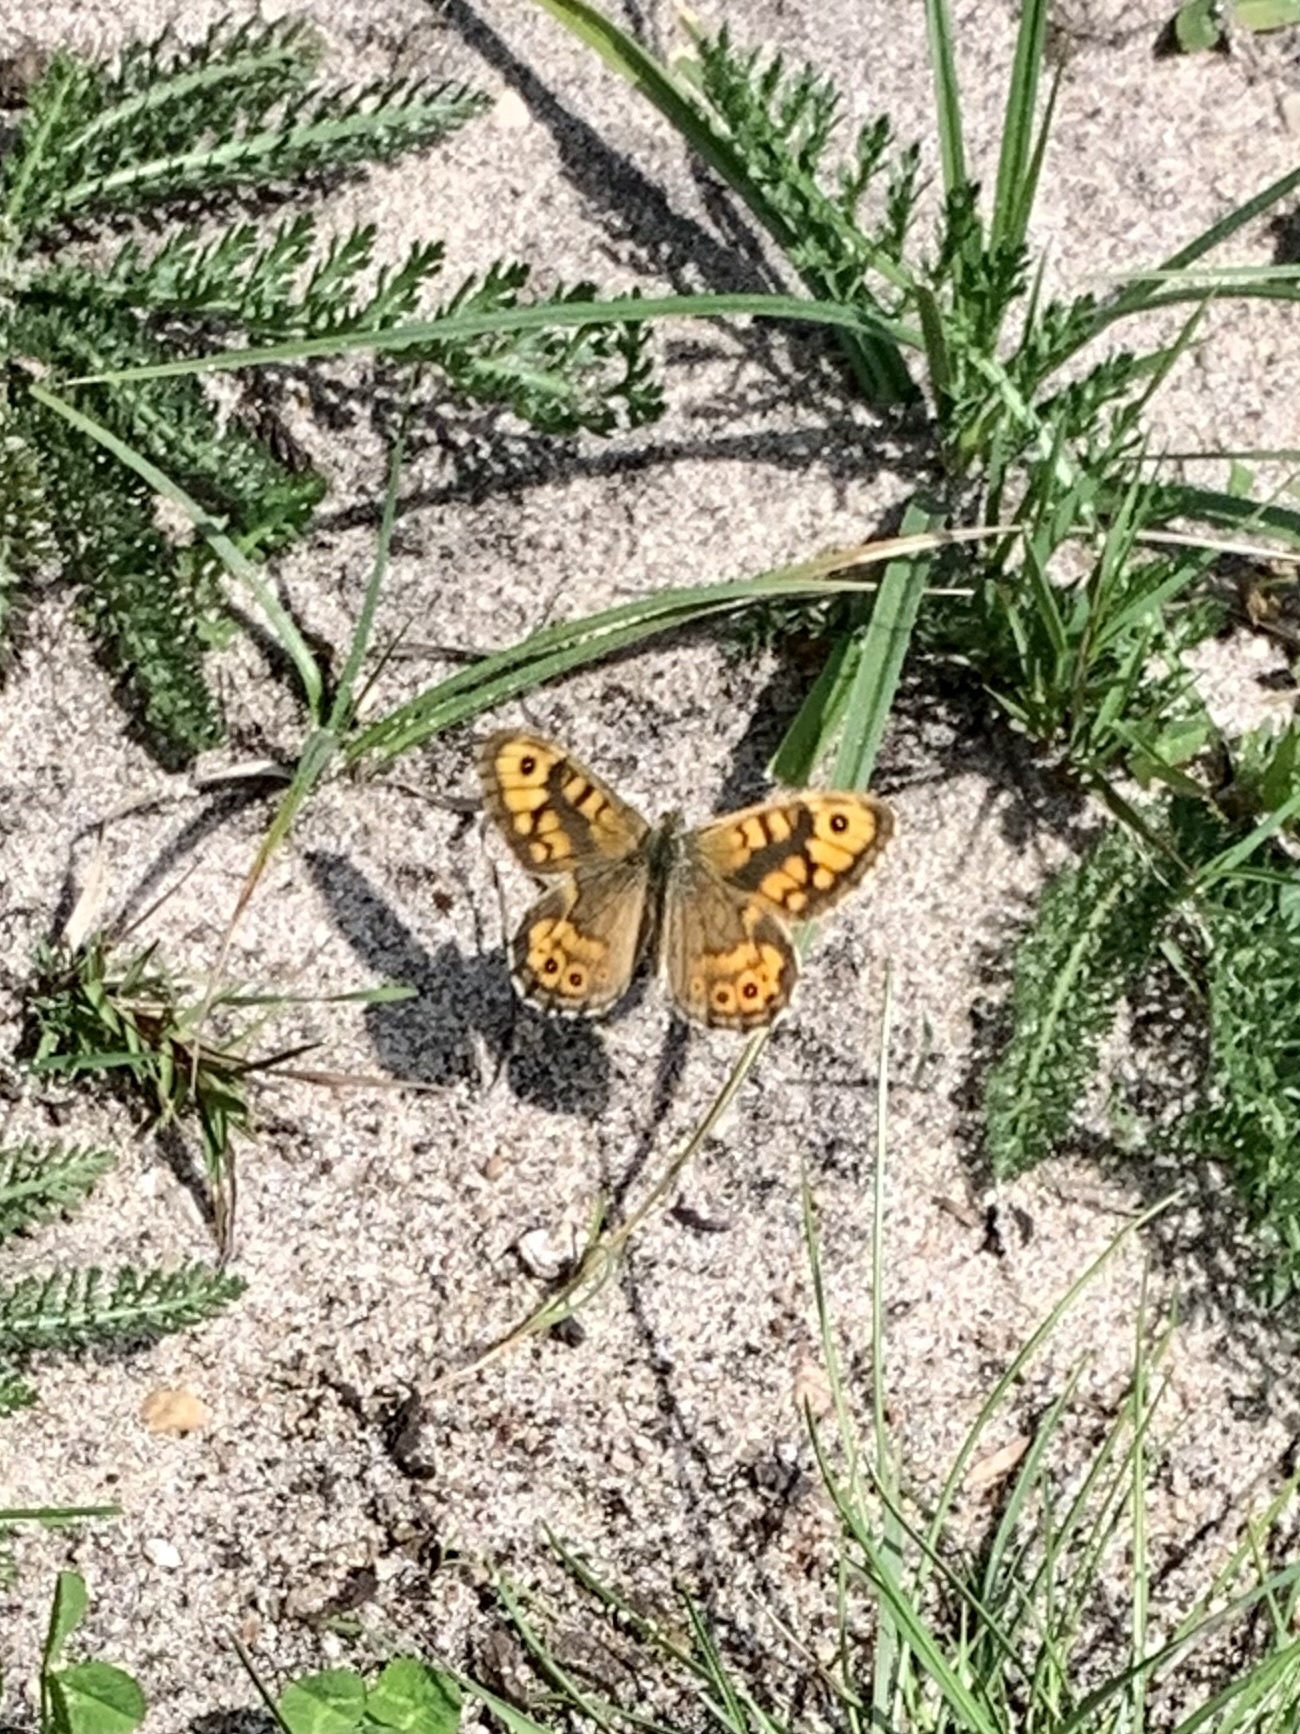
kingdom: Animalia
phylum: Arthropoda
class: Insecta
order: Lepidoptera
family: Nymphalidae
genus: Pararge
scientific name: Pararge Lasiommata megera
